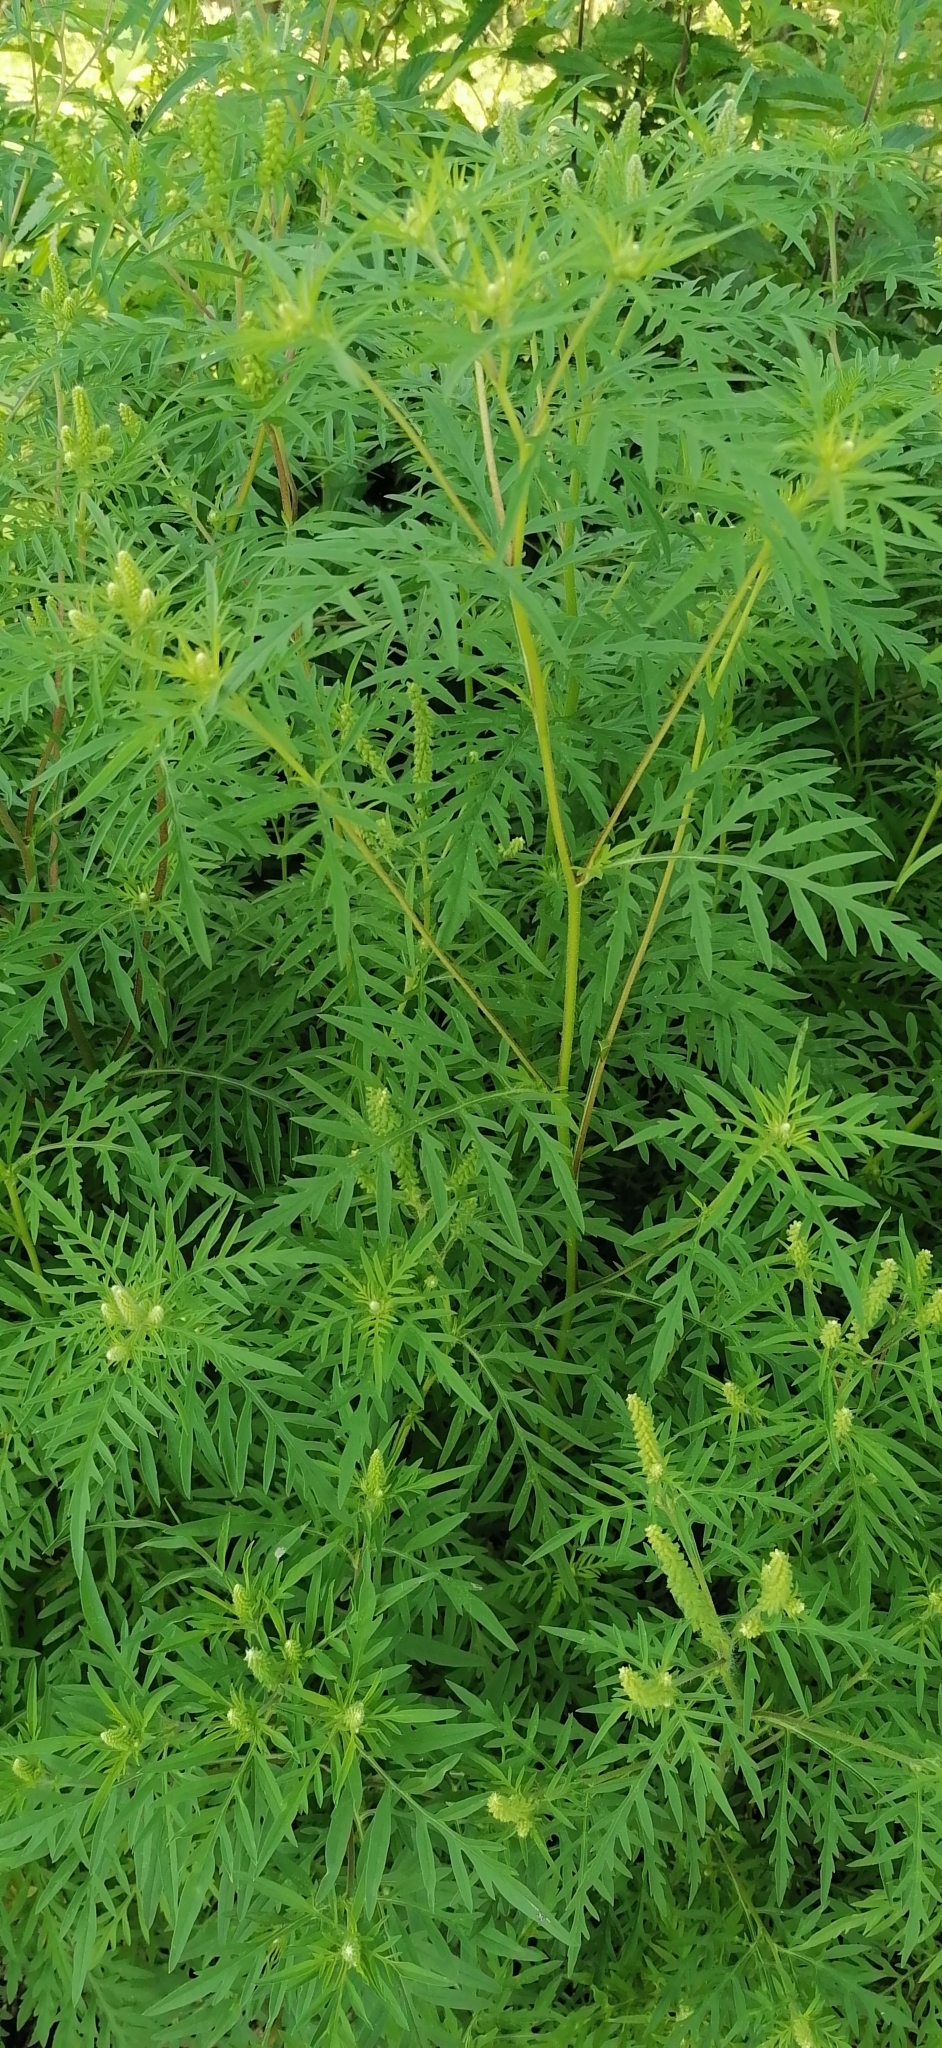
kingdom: Plantae
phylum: Tracheophyta
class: Magnoliopsida
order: Asterales
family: Asteraceae
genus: Ambrosia
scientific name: Ambrosia artemisiifolia
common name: Annual ragweed
